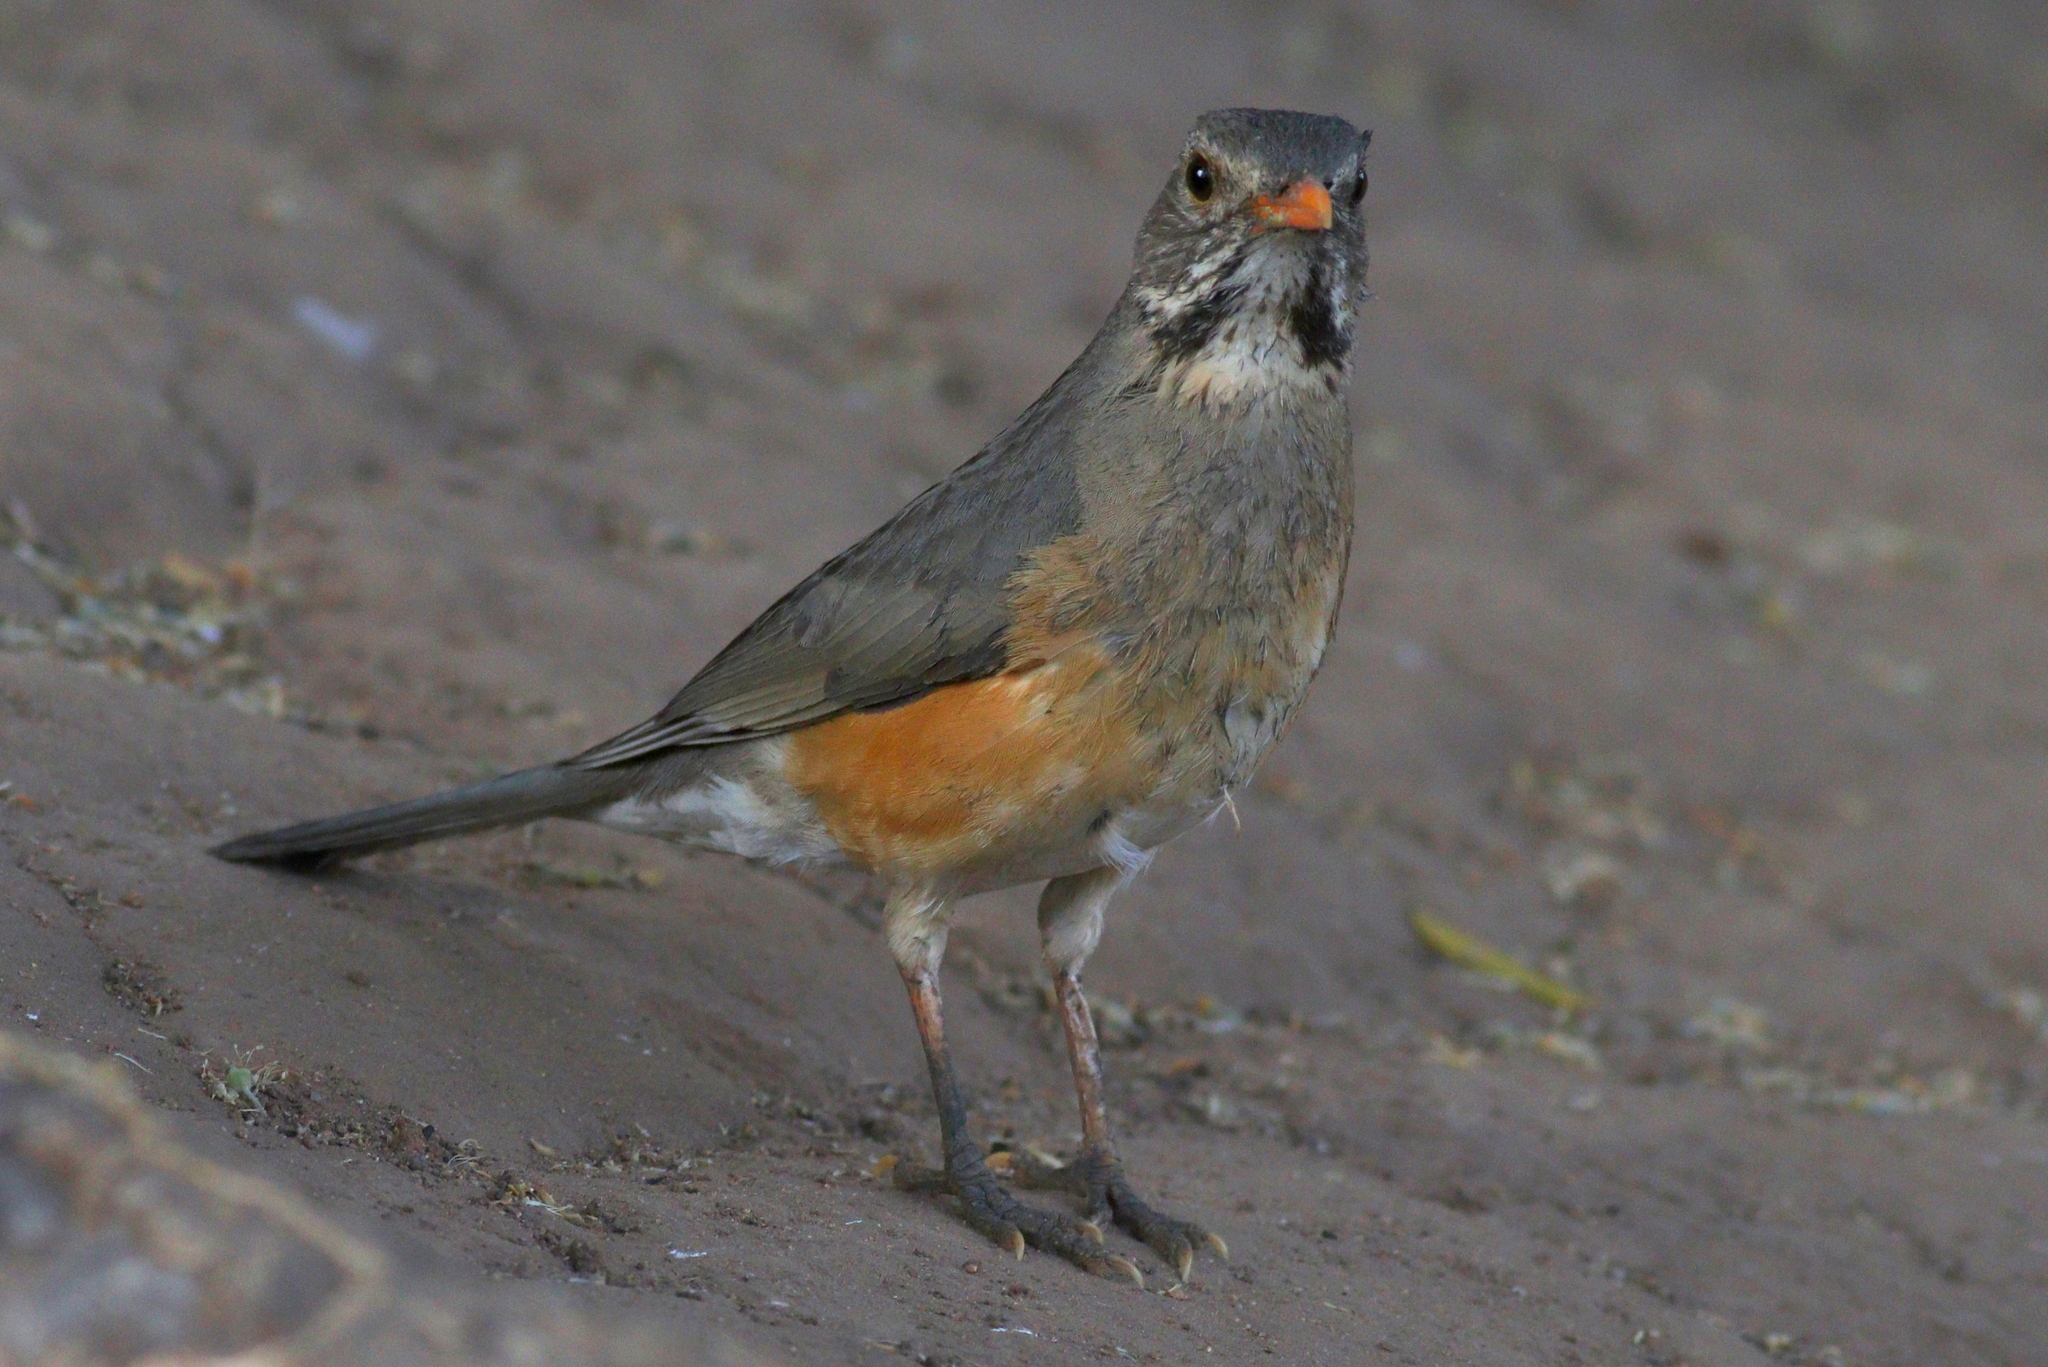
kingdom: Animalia
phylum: Chordata
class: Aves
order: Passeriformes
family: Turdidae
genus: Turdus
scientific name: Turdus libonyana
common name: Kurrichane thrush
